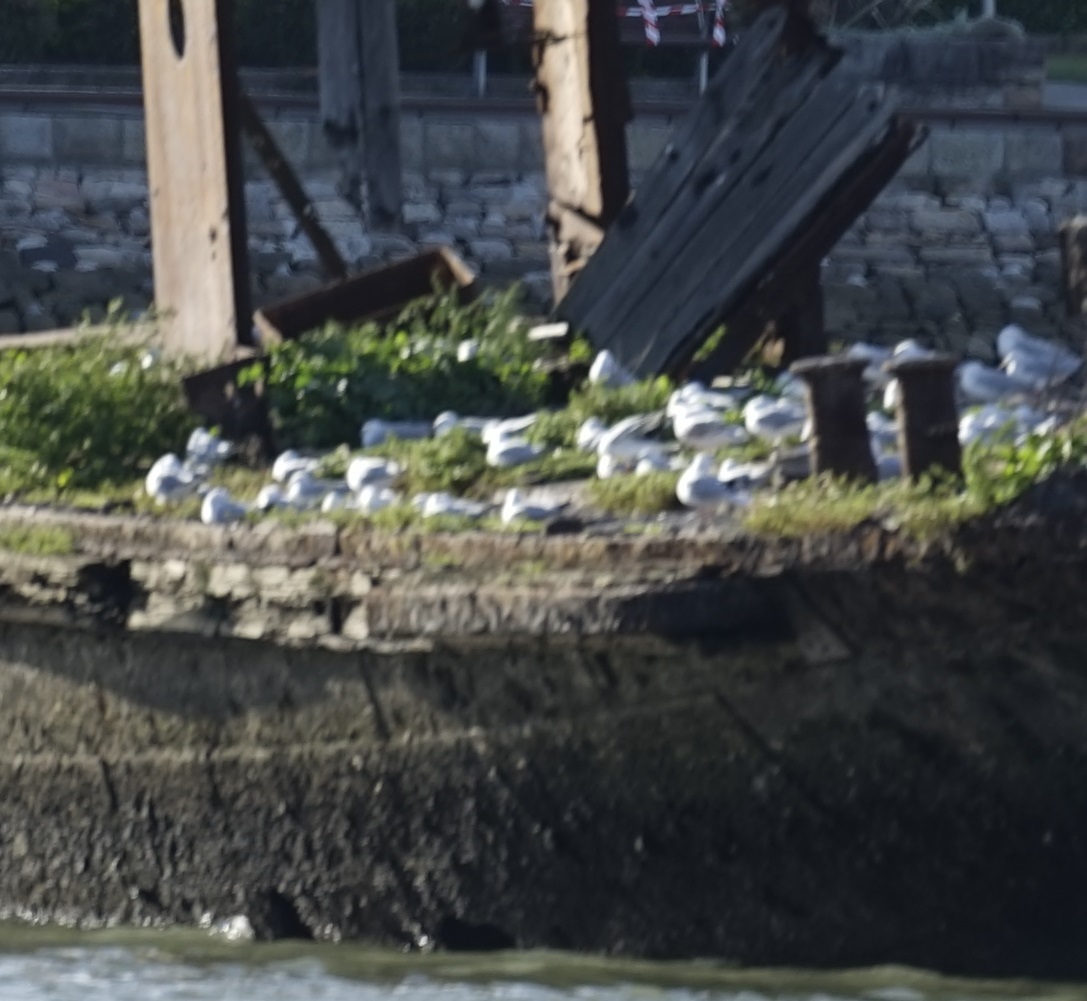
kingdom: Animalia
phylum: Chordata
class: Aves
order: Charadriiformes
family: Laridae
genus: Chroicocephalus
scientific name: Chroicocephalus novaehollandiae
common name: Silver gull
